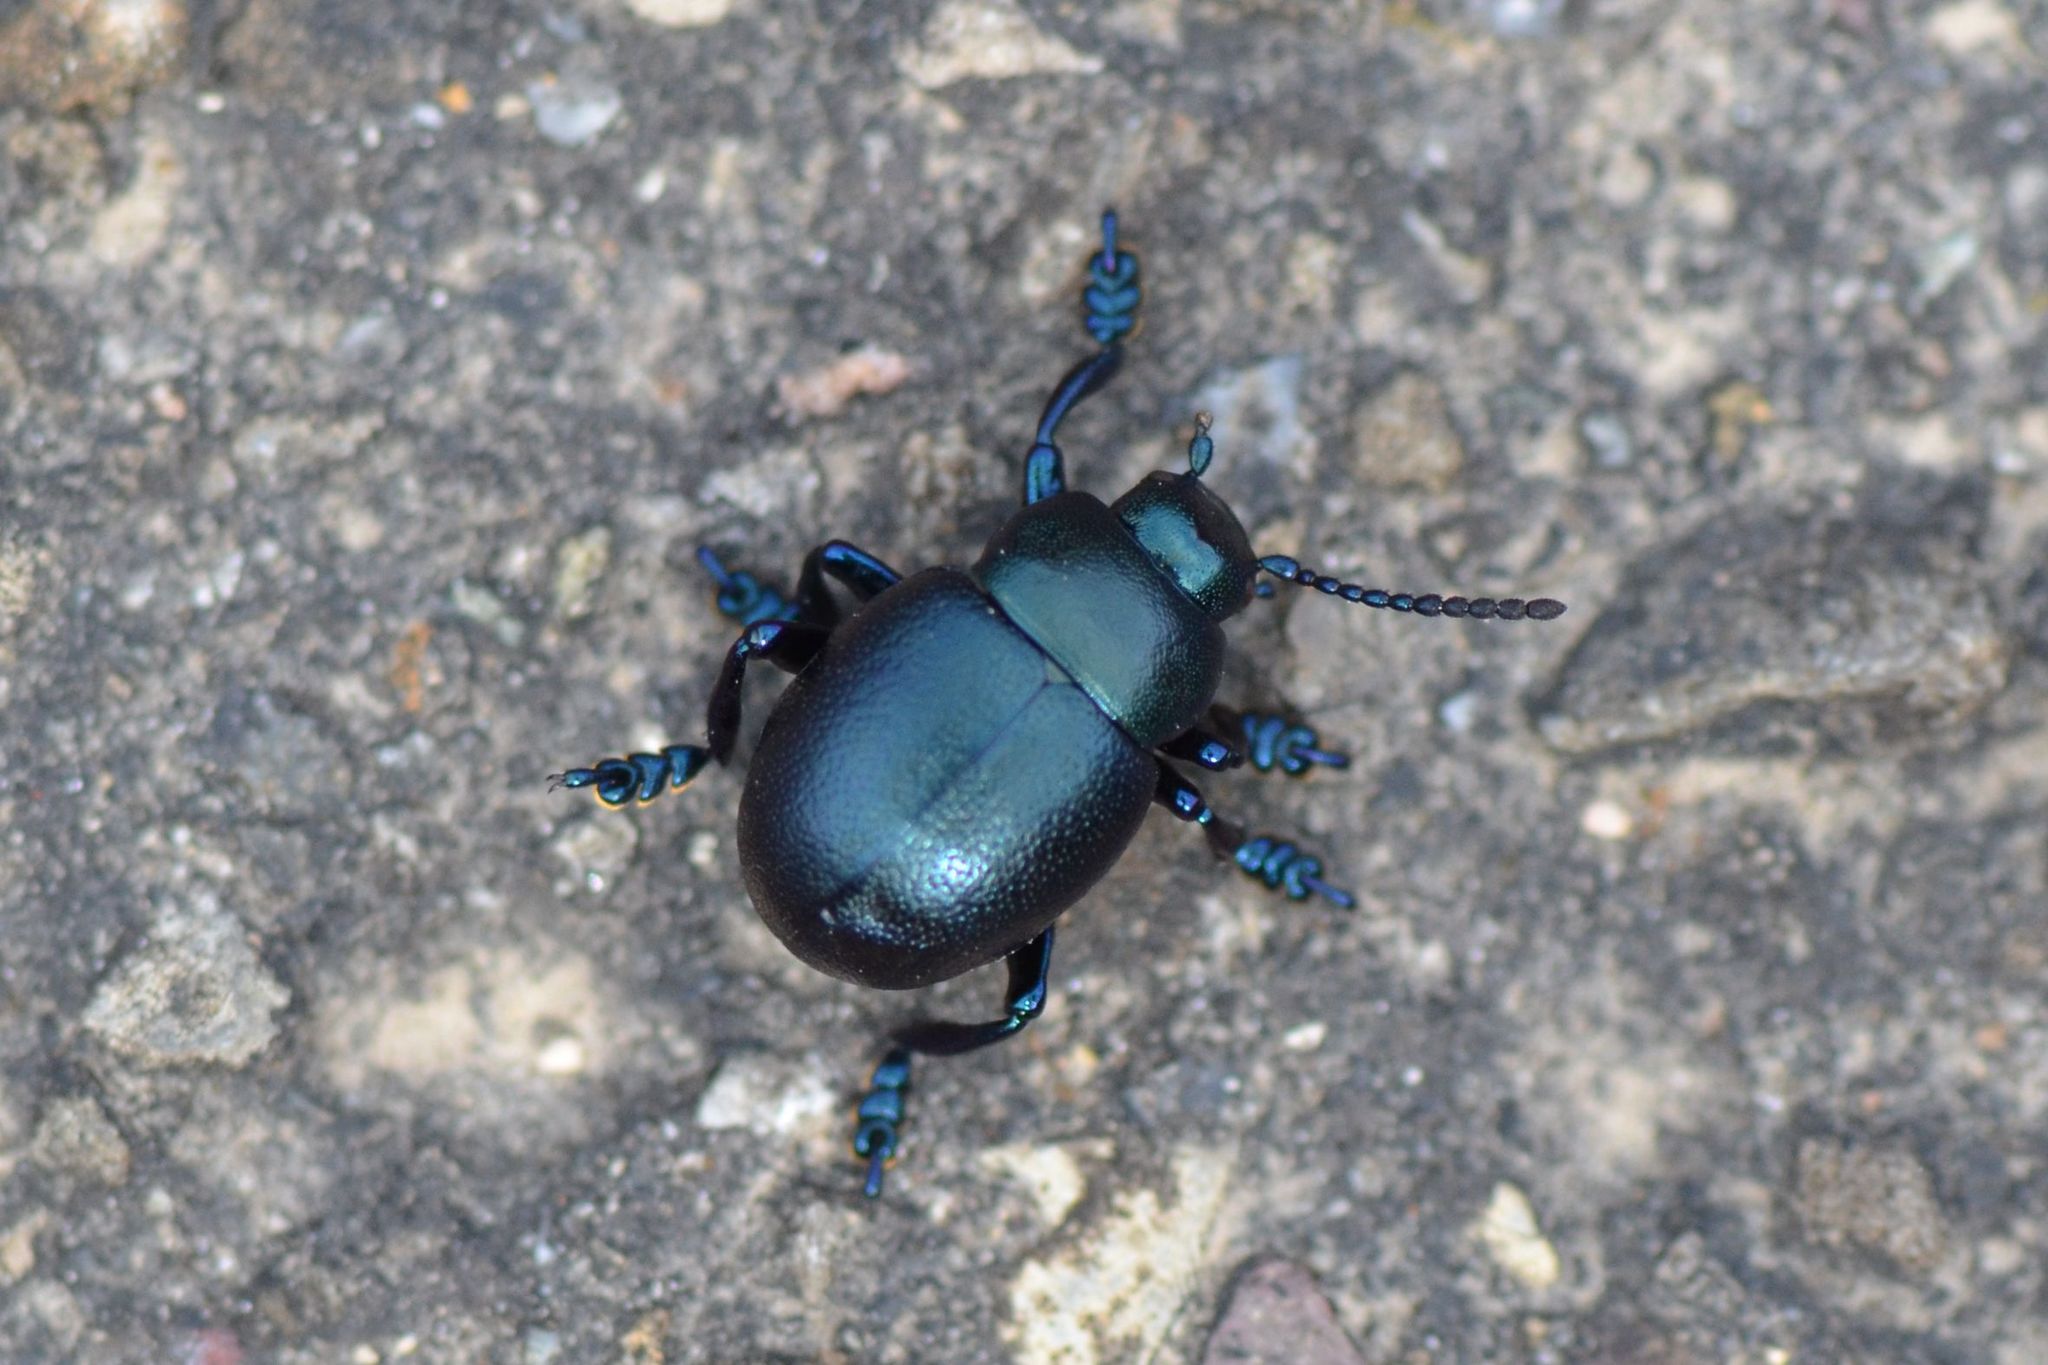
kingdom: Animalia
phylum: Arthropoda
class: Insecta
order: Coleoptera
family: Chrysomelidae
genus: Timarcha
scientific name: Timarcha goettingensis
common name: Small bloody-nosed beetle
